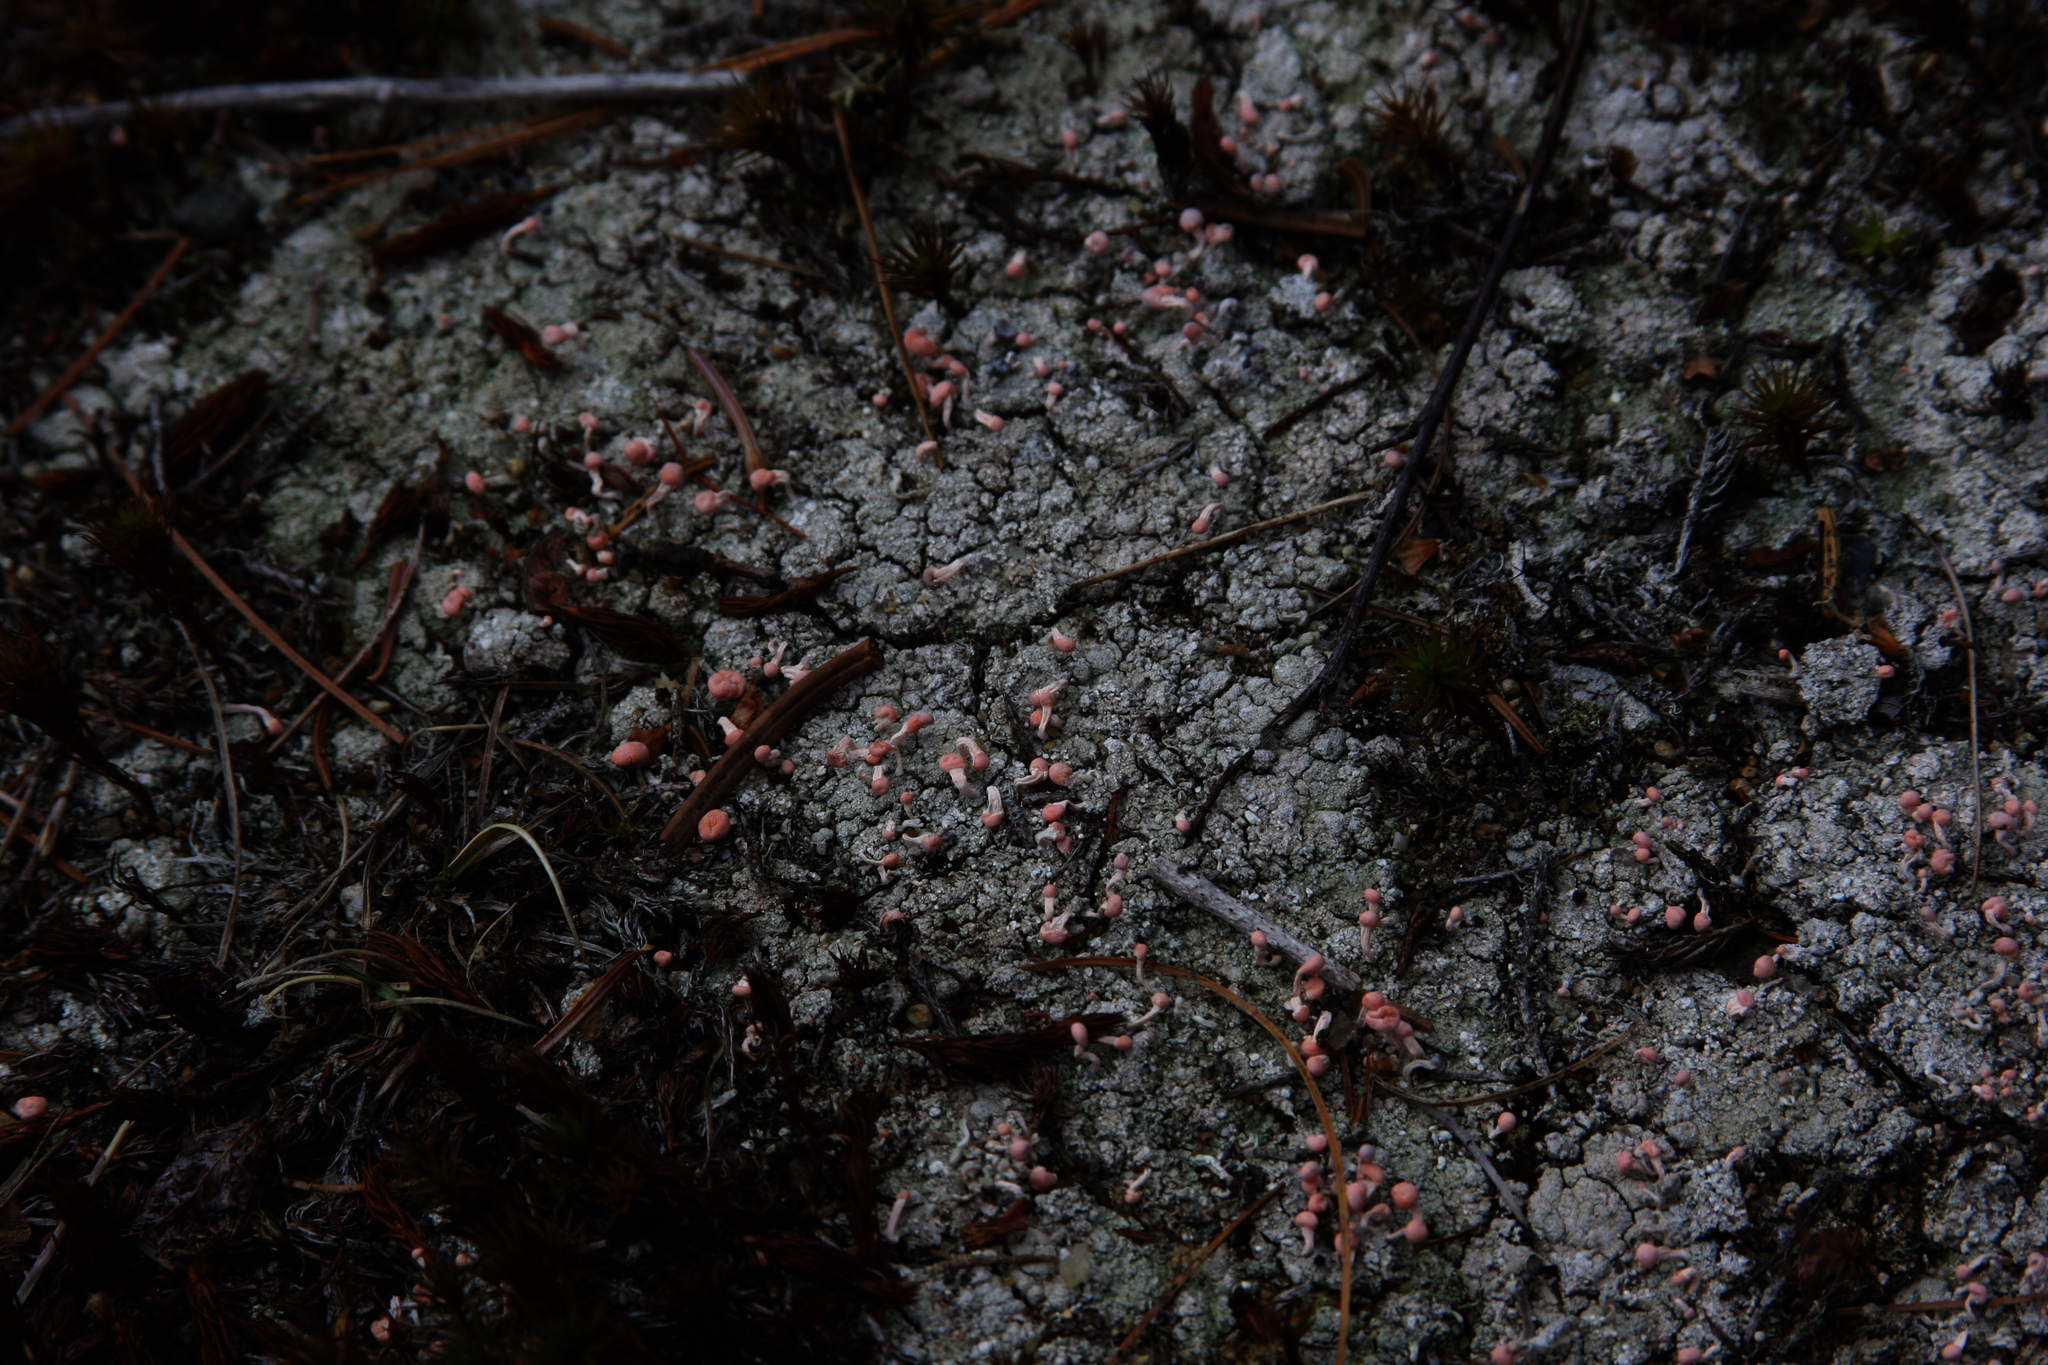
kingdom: Fungi
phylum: Ascomycota
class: Lecanoromycetes
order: Pertusariales
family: Icmadophilaceae
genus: Dibaeis
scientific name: Dibaeis baeomyces
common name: Pink earth lichen
